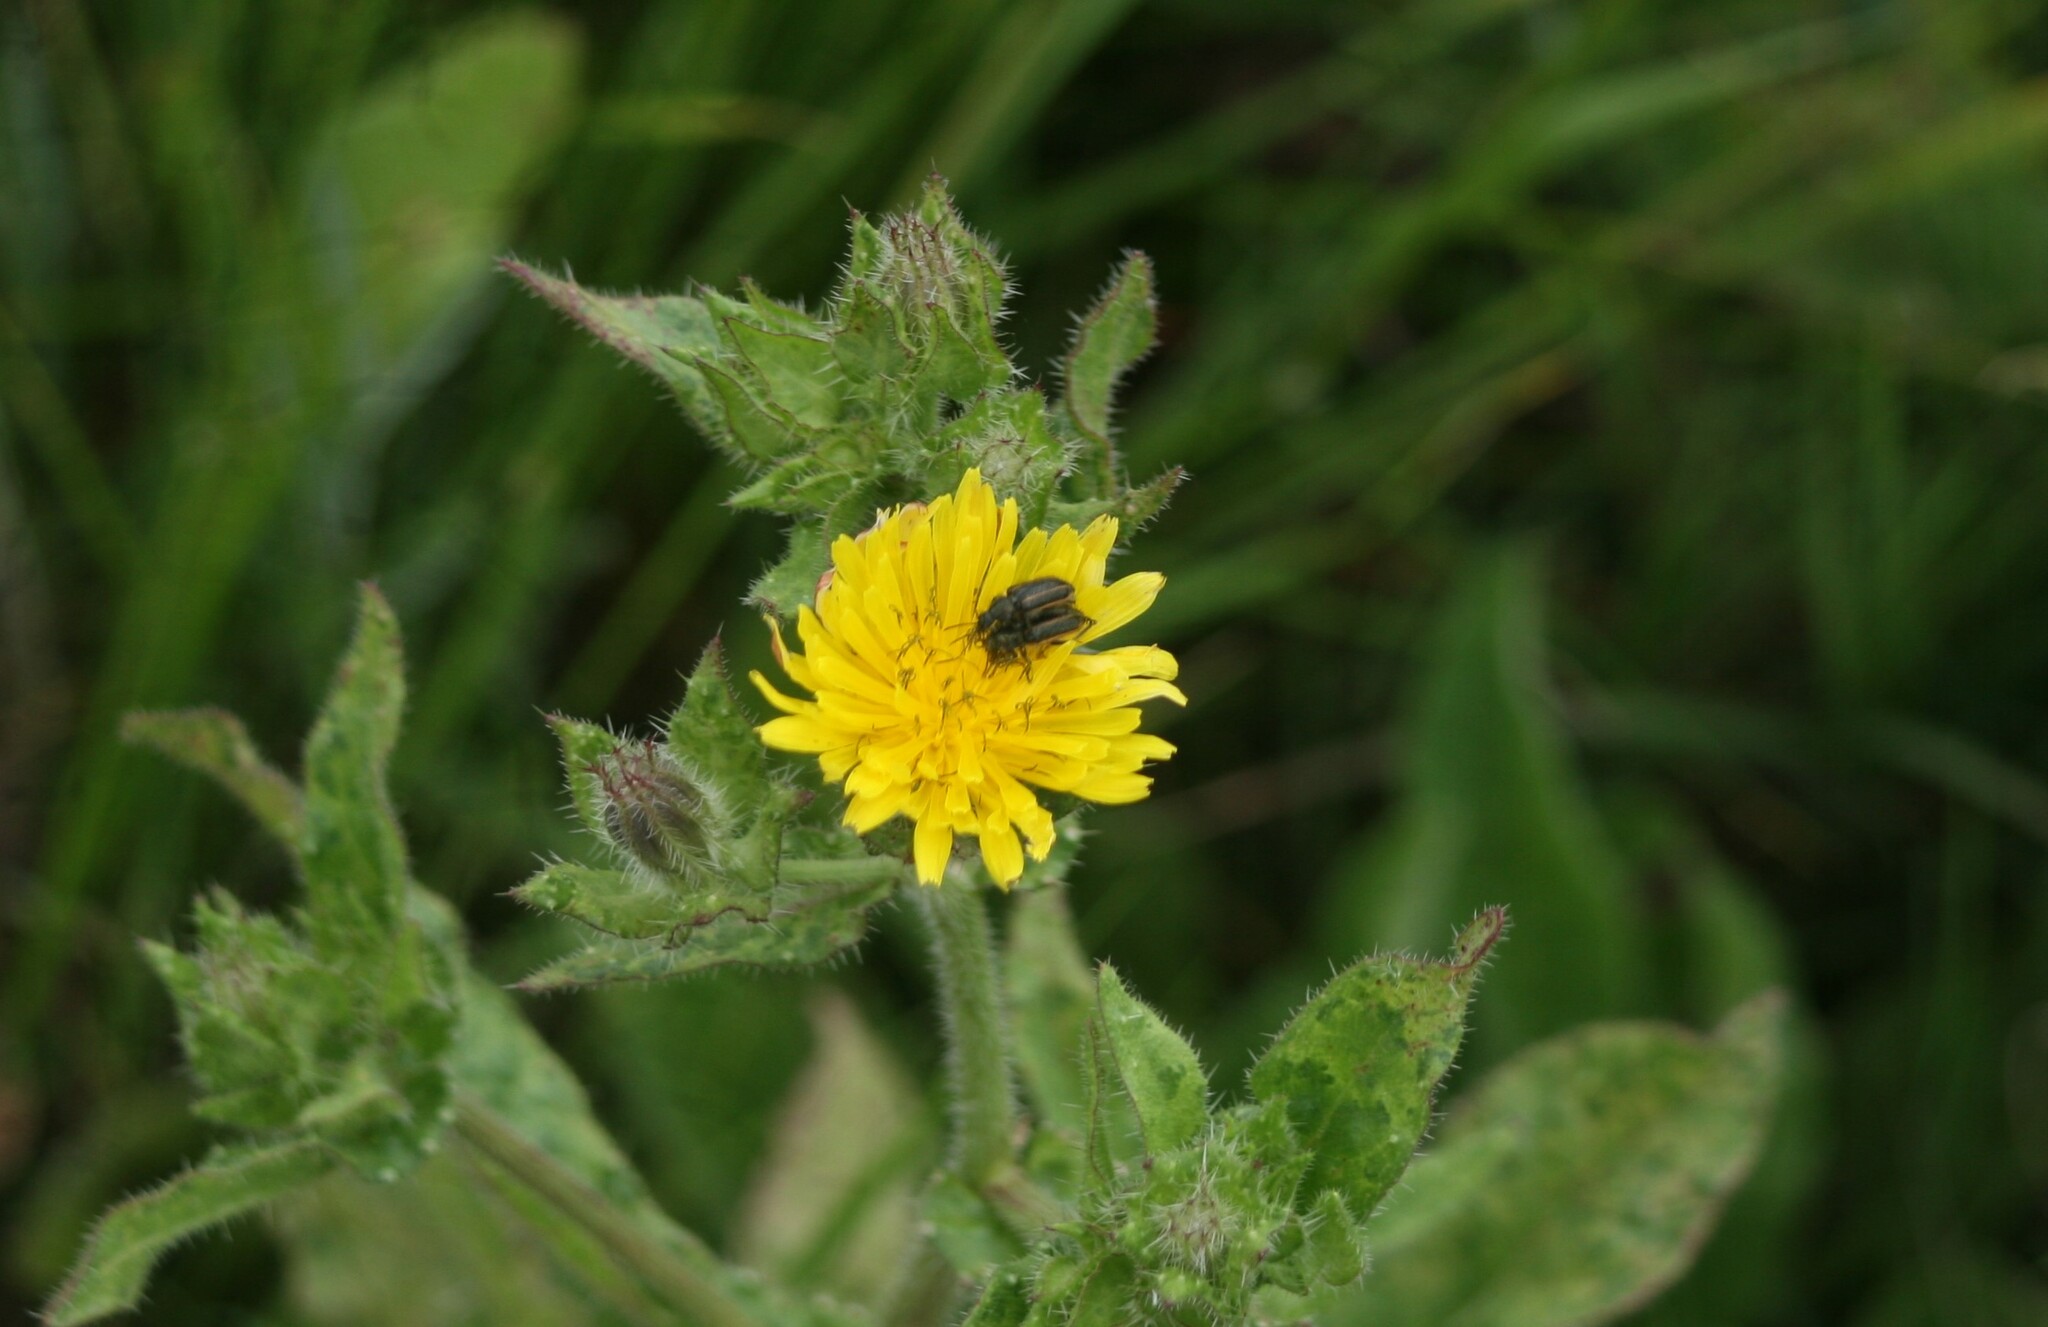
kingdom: Animalia
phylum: Arthropoda
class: Insecta
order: Coleoptera
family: Melyridae
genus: Astylus
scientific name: Astylus
